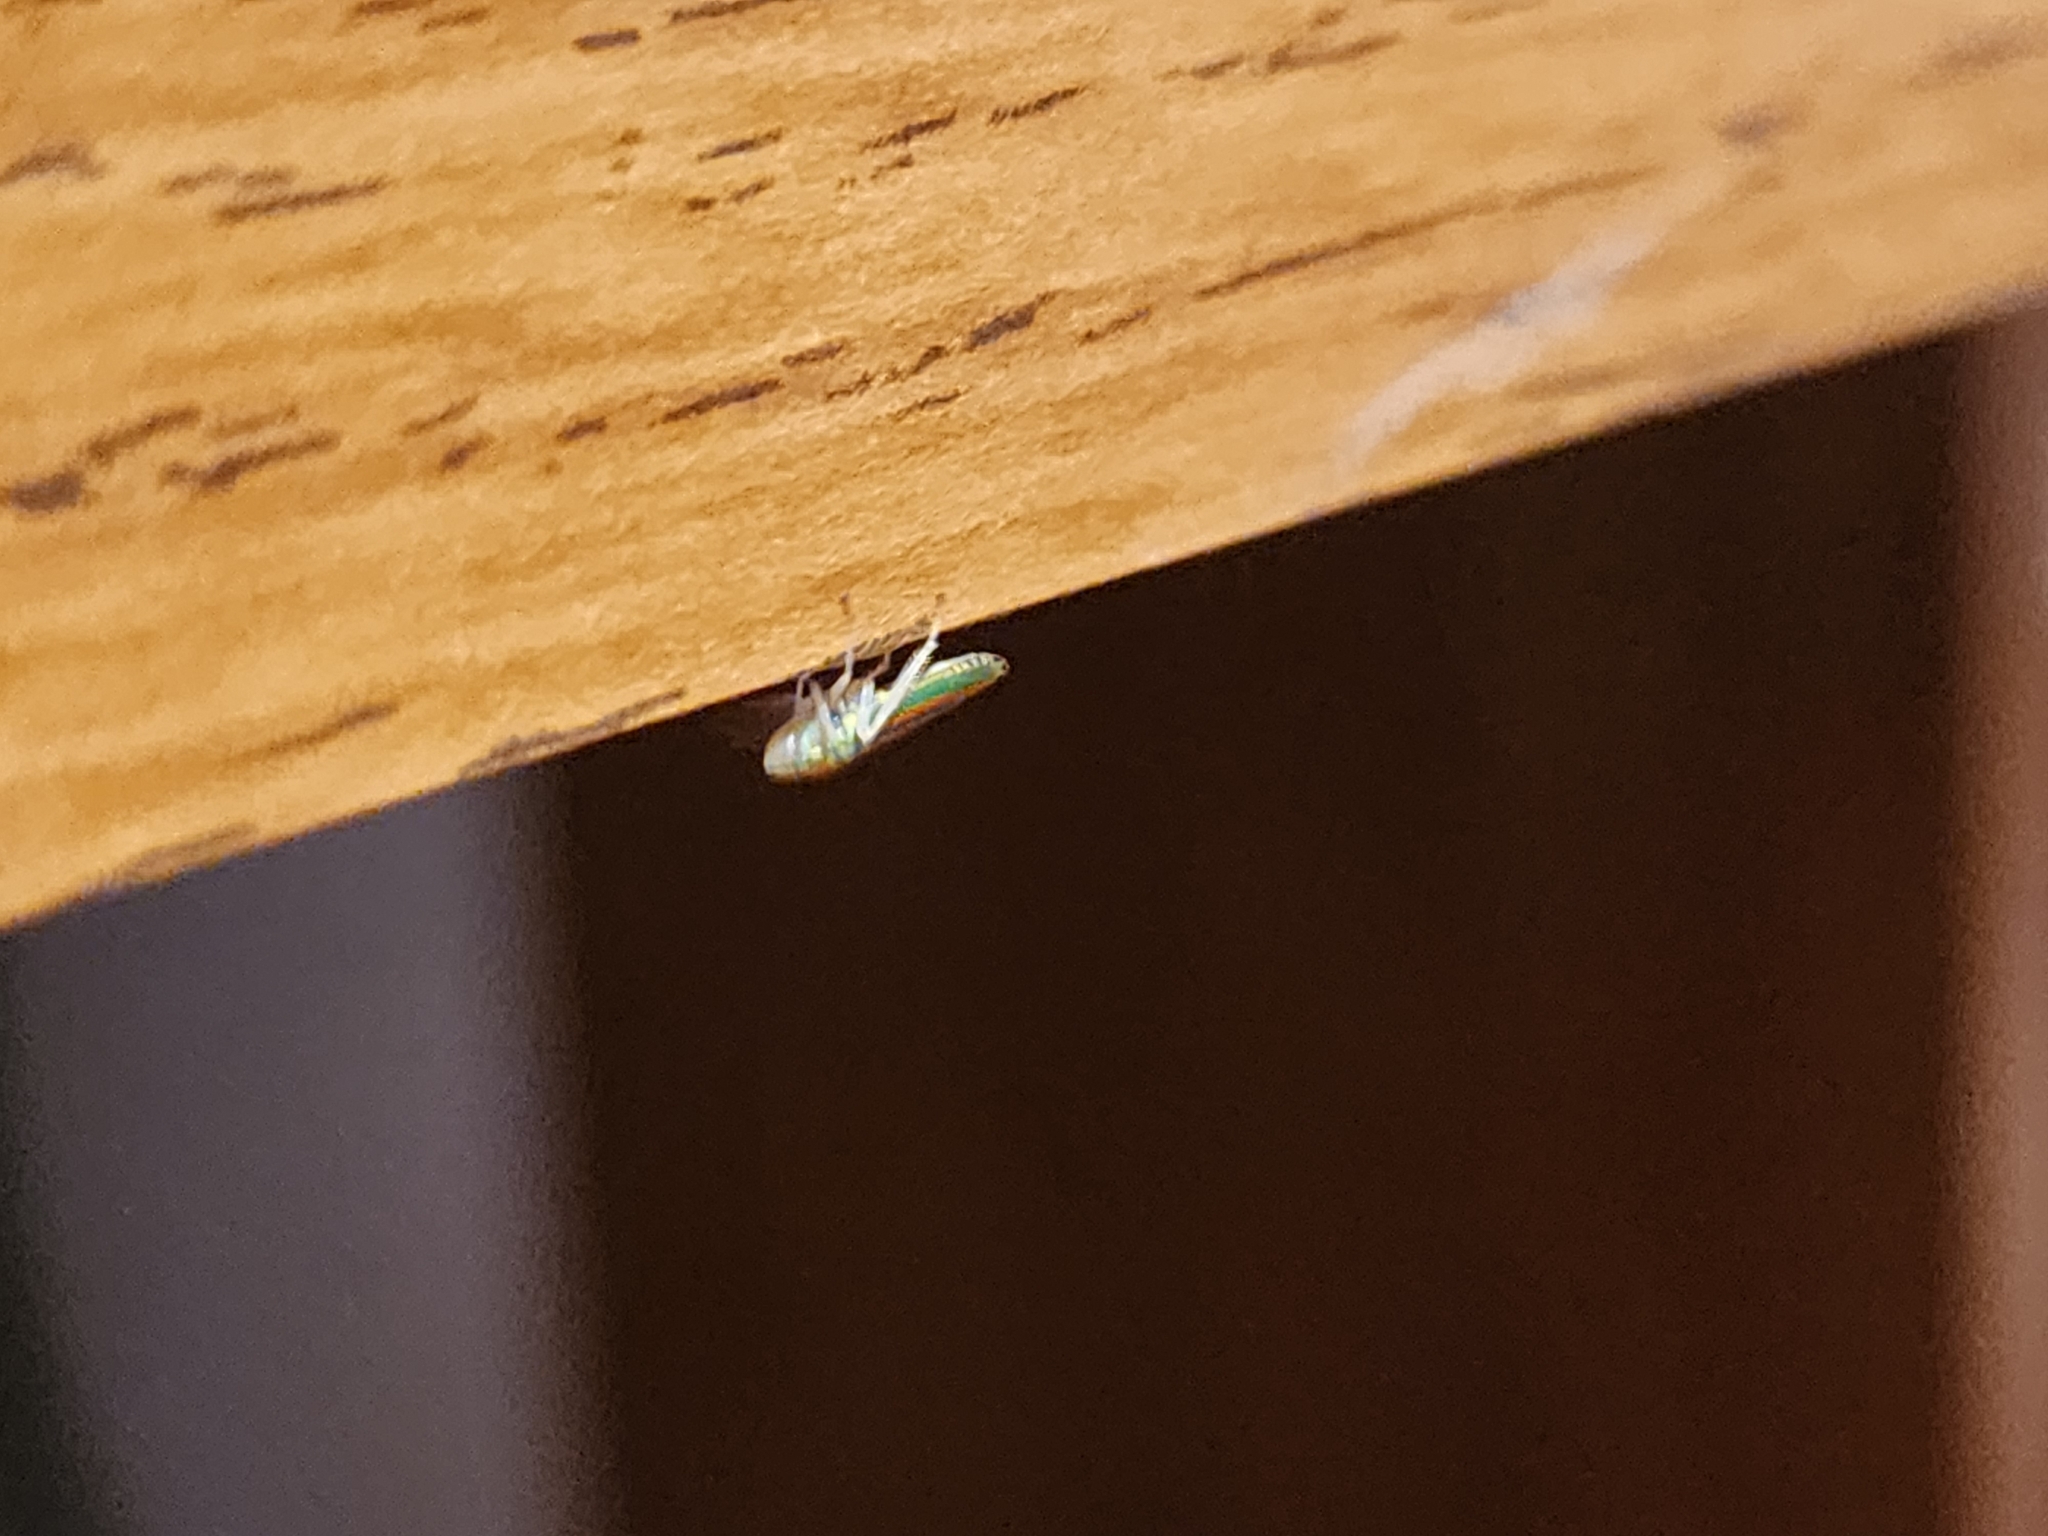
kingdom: Animalia
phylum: Arthropoda
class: Insecta
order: Hemiptera
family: Cicadellidae
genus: Graphocephala
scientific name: Graphocephala versuta
